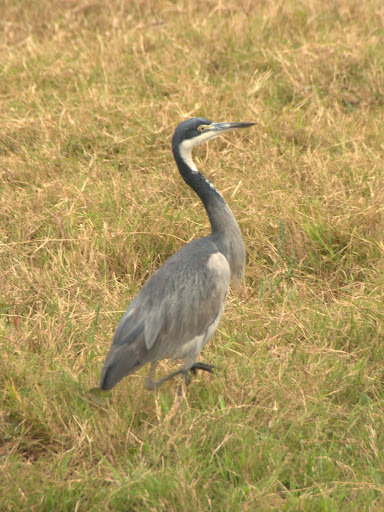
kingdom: Animalia
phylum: Chordata
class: Aves
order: Pelecaniformes
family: Ardeidae
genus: Ardea
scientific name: Ardea melanocephala
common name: Black-headed heron
